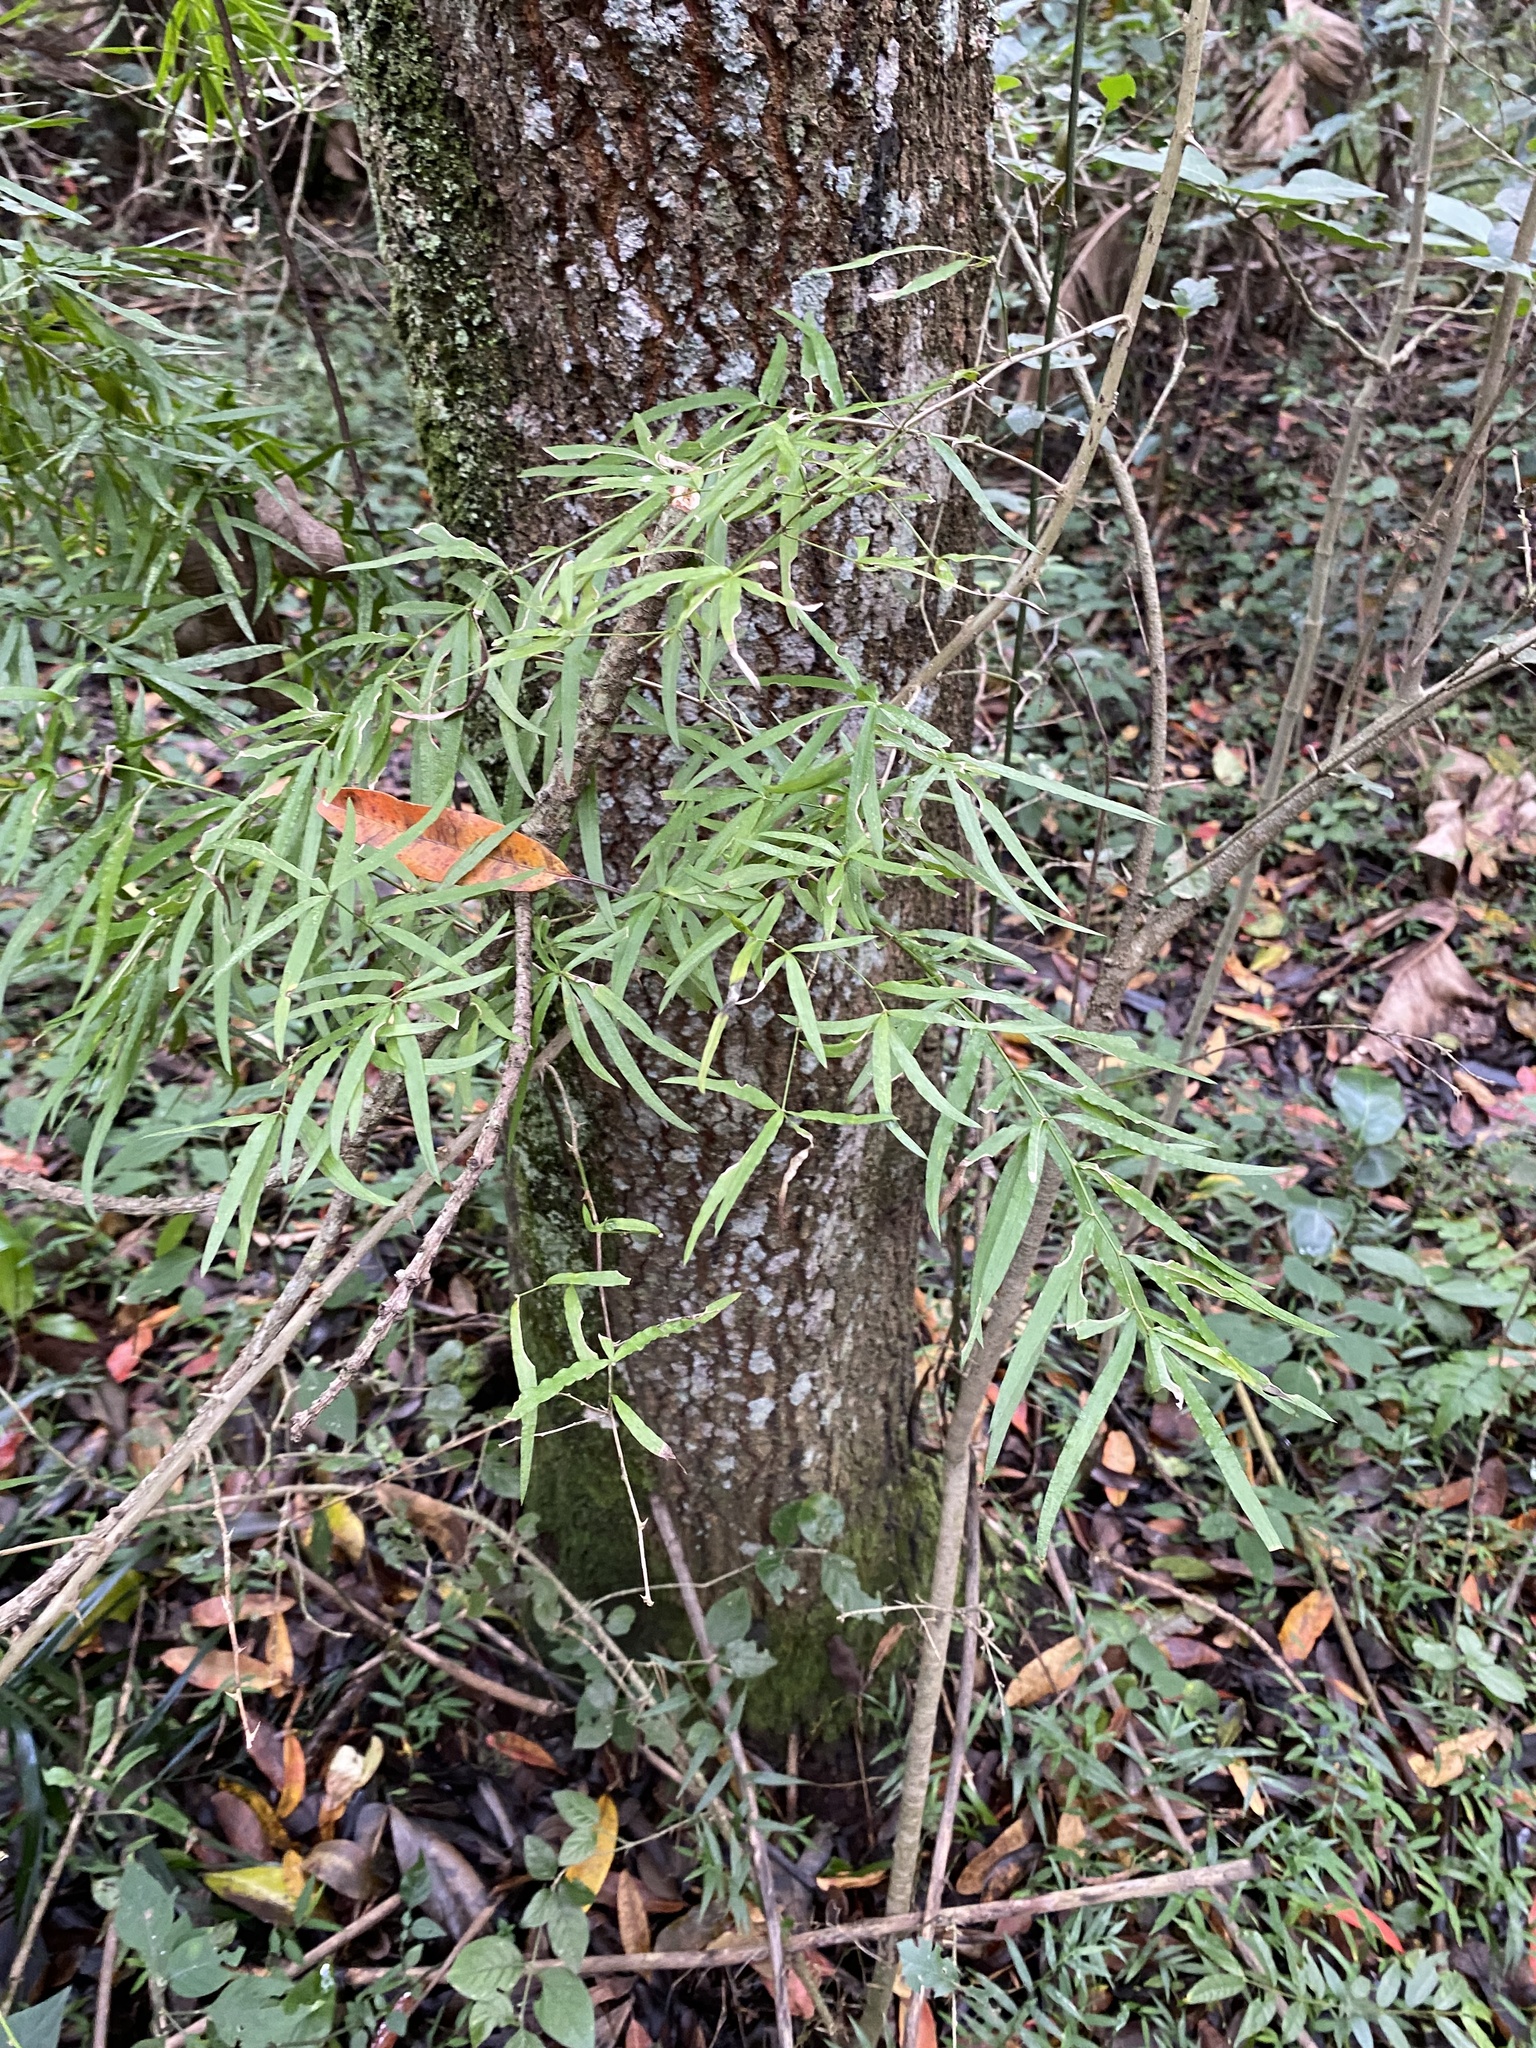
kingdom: Plantae
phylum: Tracheophyta
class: Liliopsida
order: Asparagales
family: Asparagaceae
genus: Asparagus
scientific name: Asparagus falcatus
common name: Asparagus
